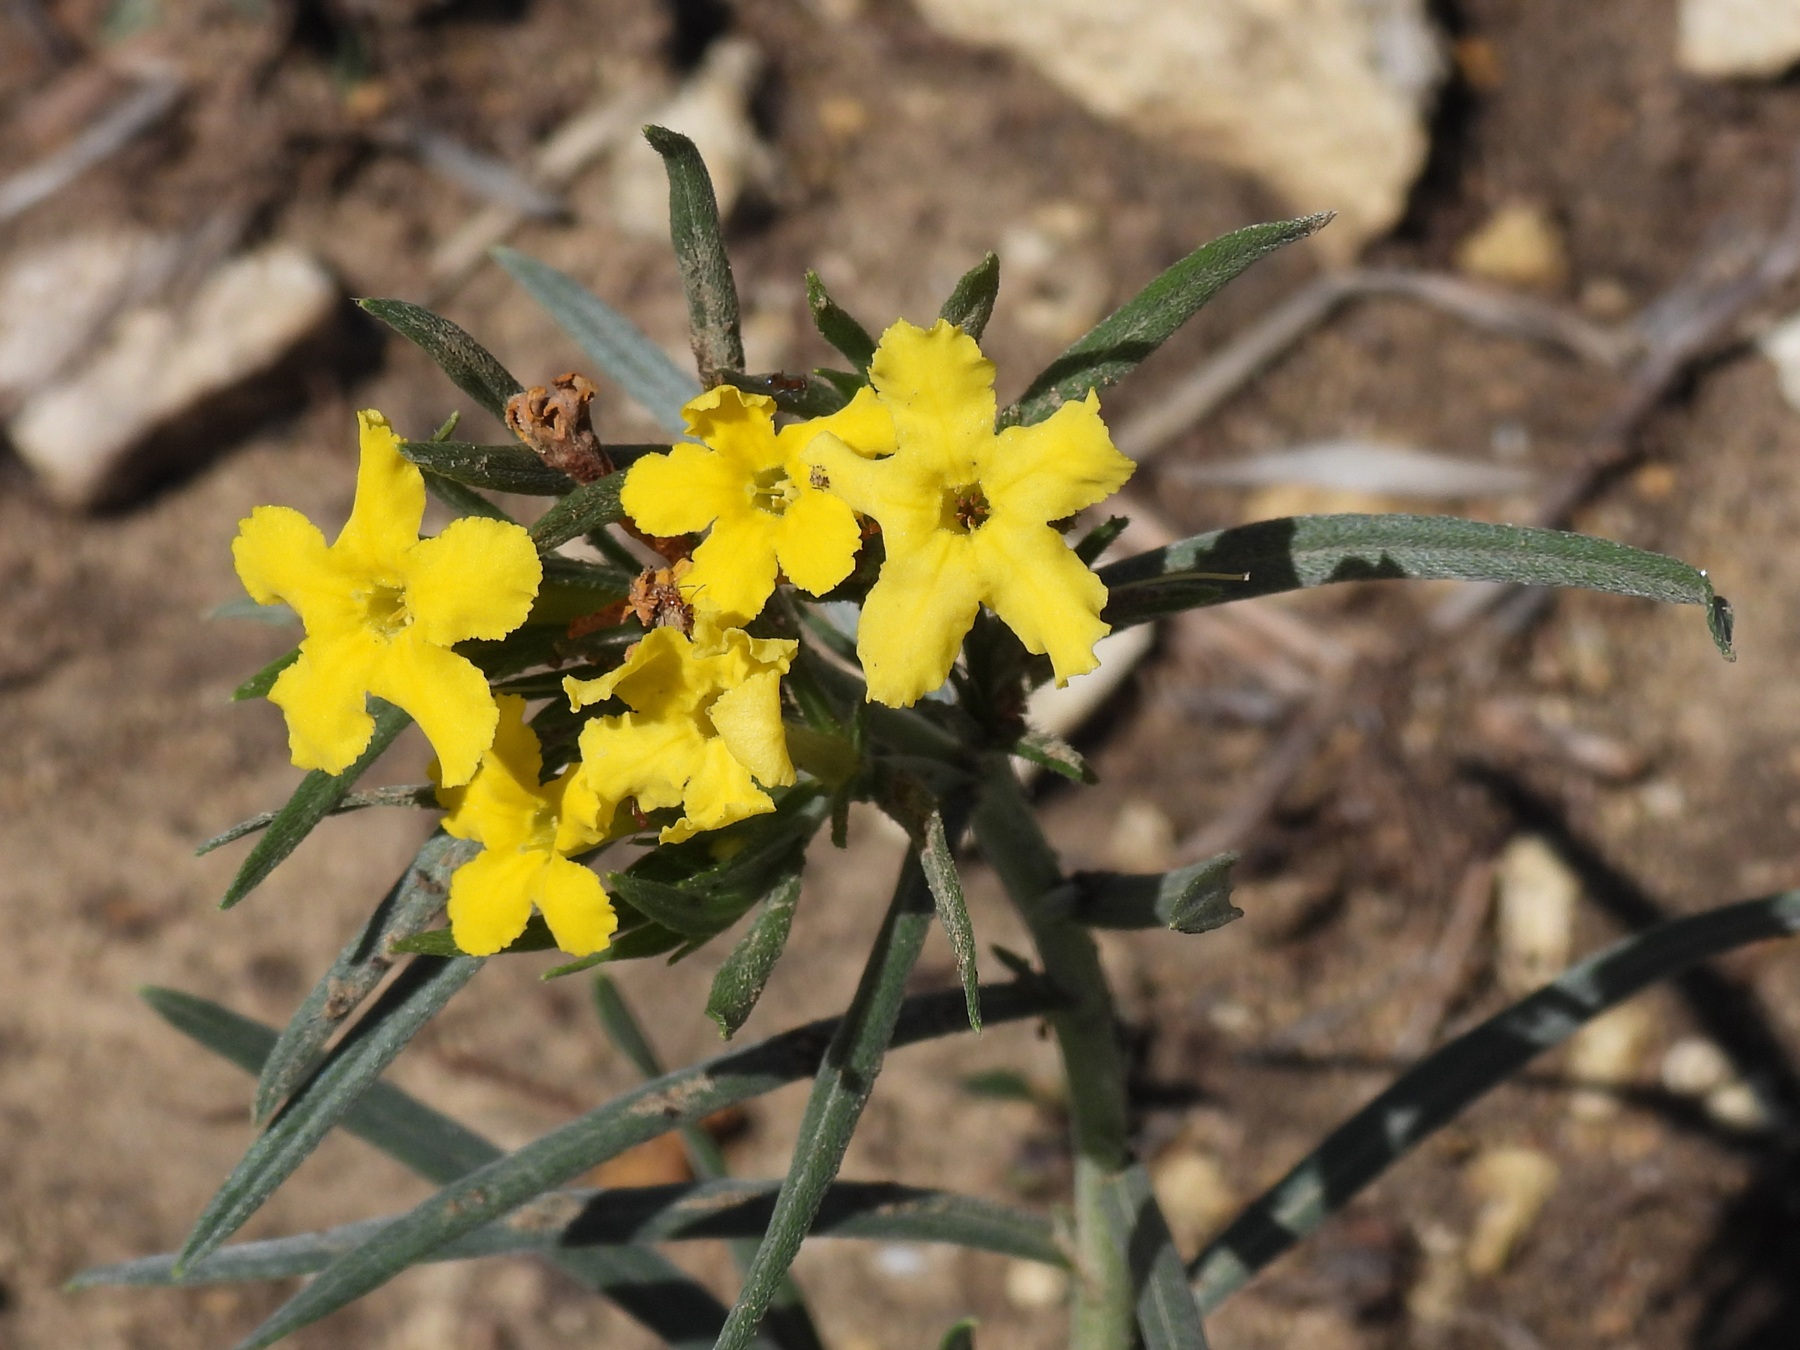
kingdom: Plantae
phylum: Tracheophyta
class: Magnoliopsida
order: Boraginales
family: Boraginaceae
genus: Lithospermum
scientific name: Lithospermum incisum
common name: Fringed gromwell
